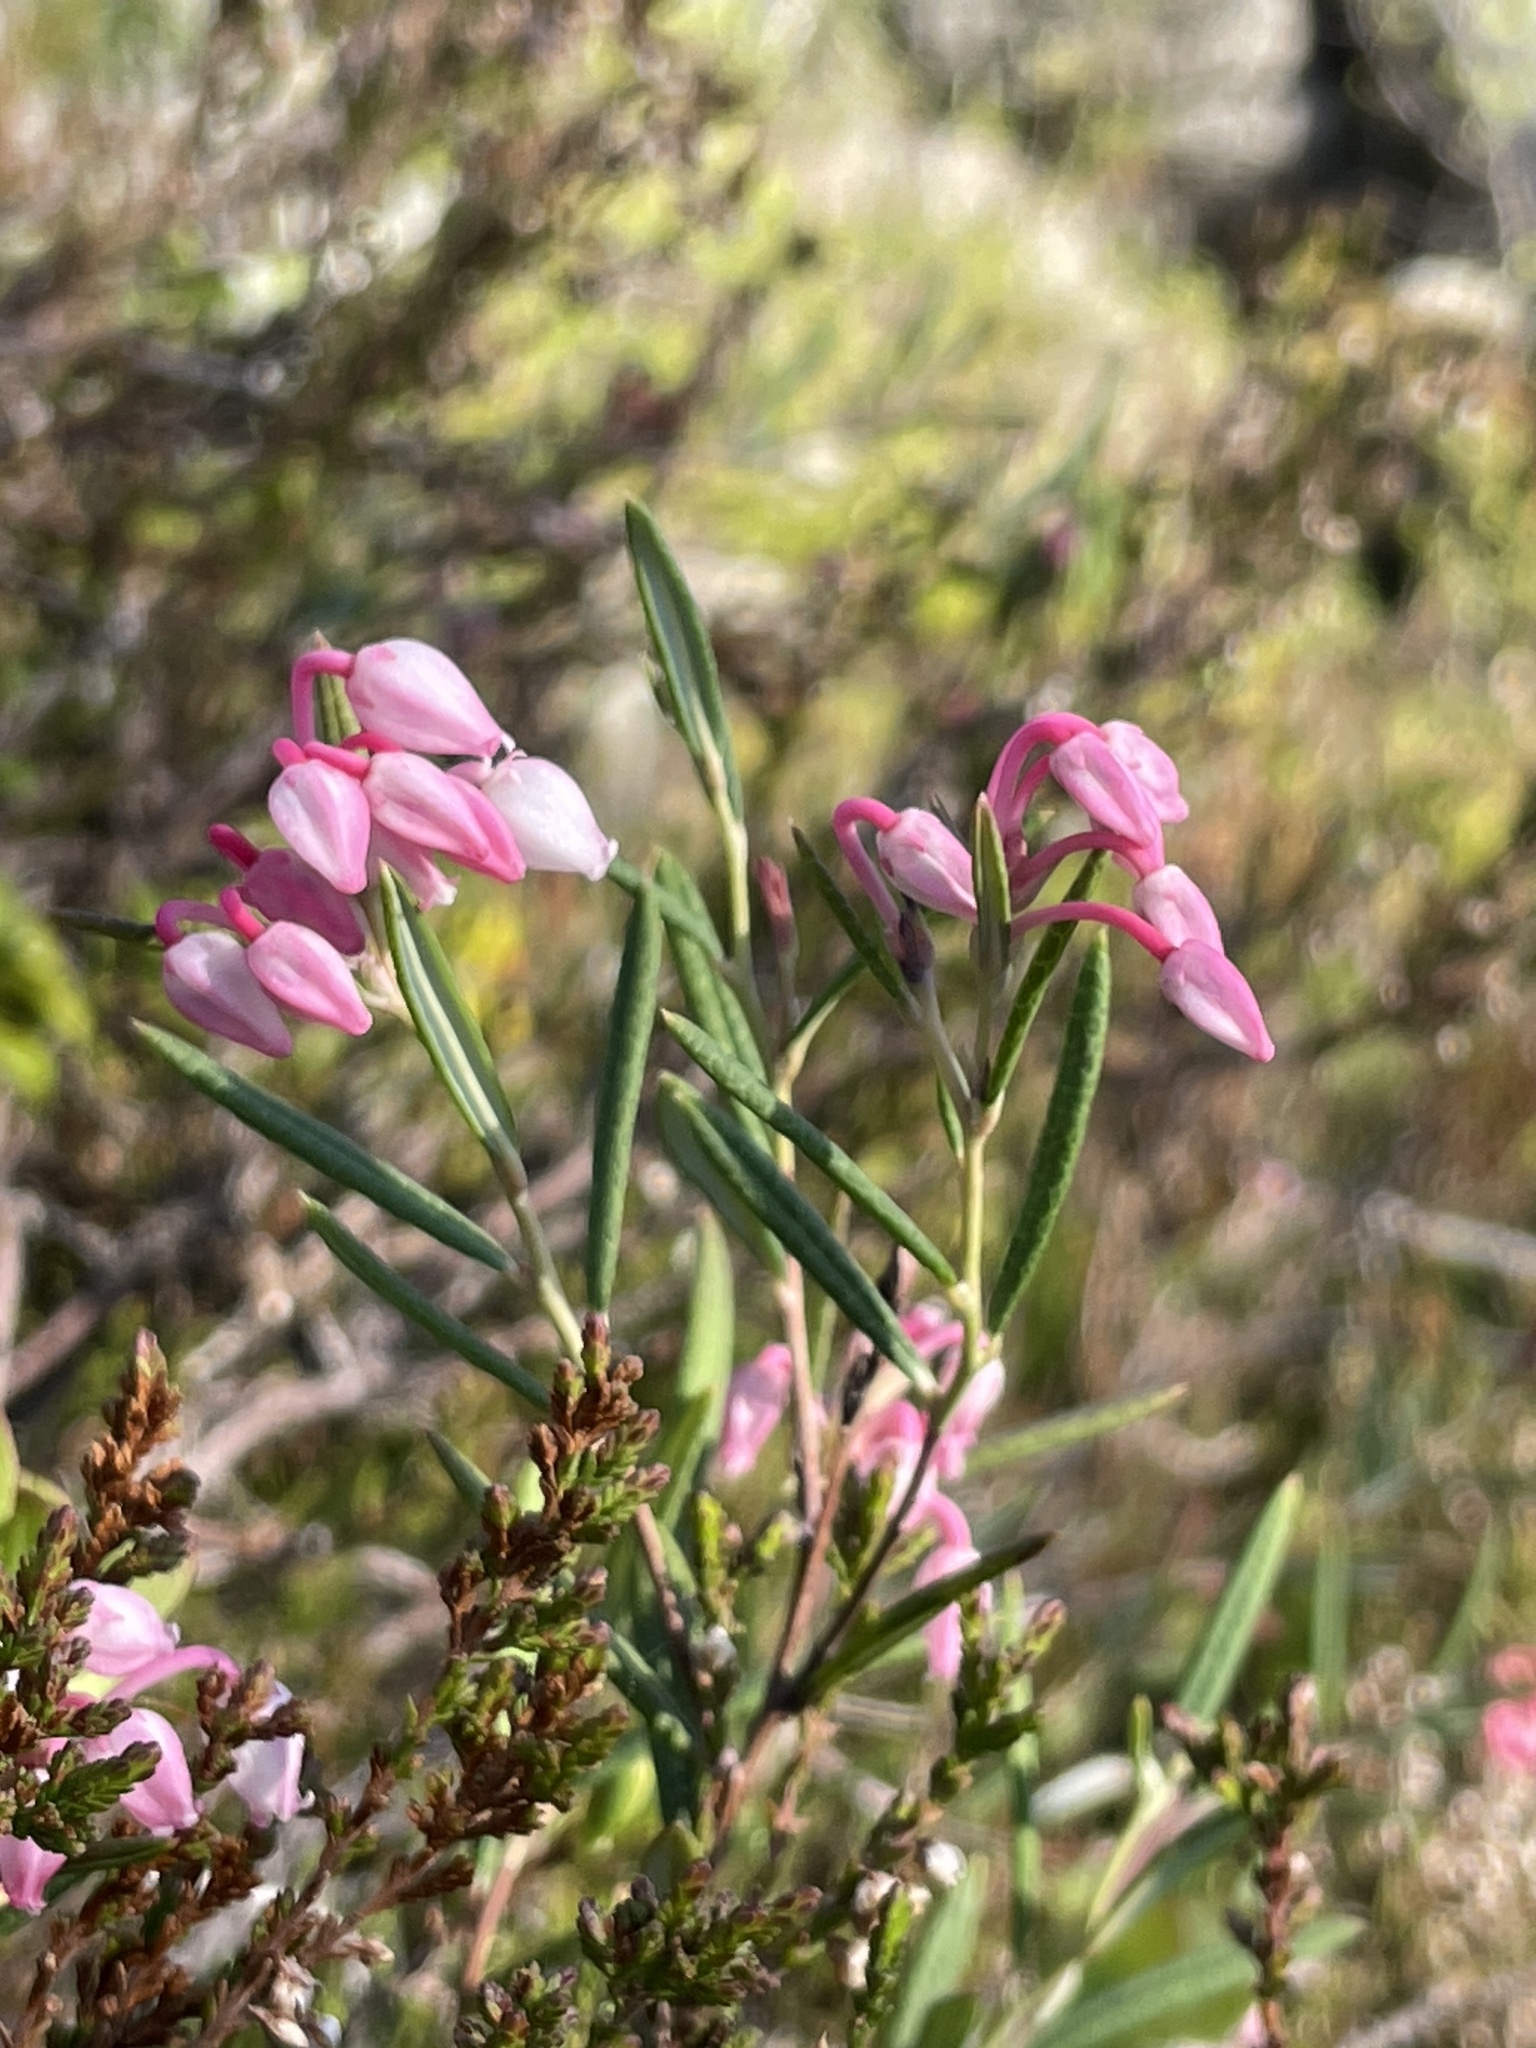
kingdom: Plantae
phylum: Tracheophyta
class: Magnoliopsida
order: Ericales
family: Ericaceae
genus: Andromeda
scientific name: Andromeda polifolia
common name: Bog-rosemary
